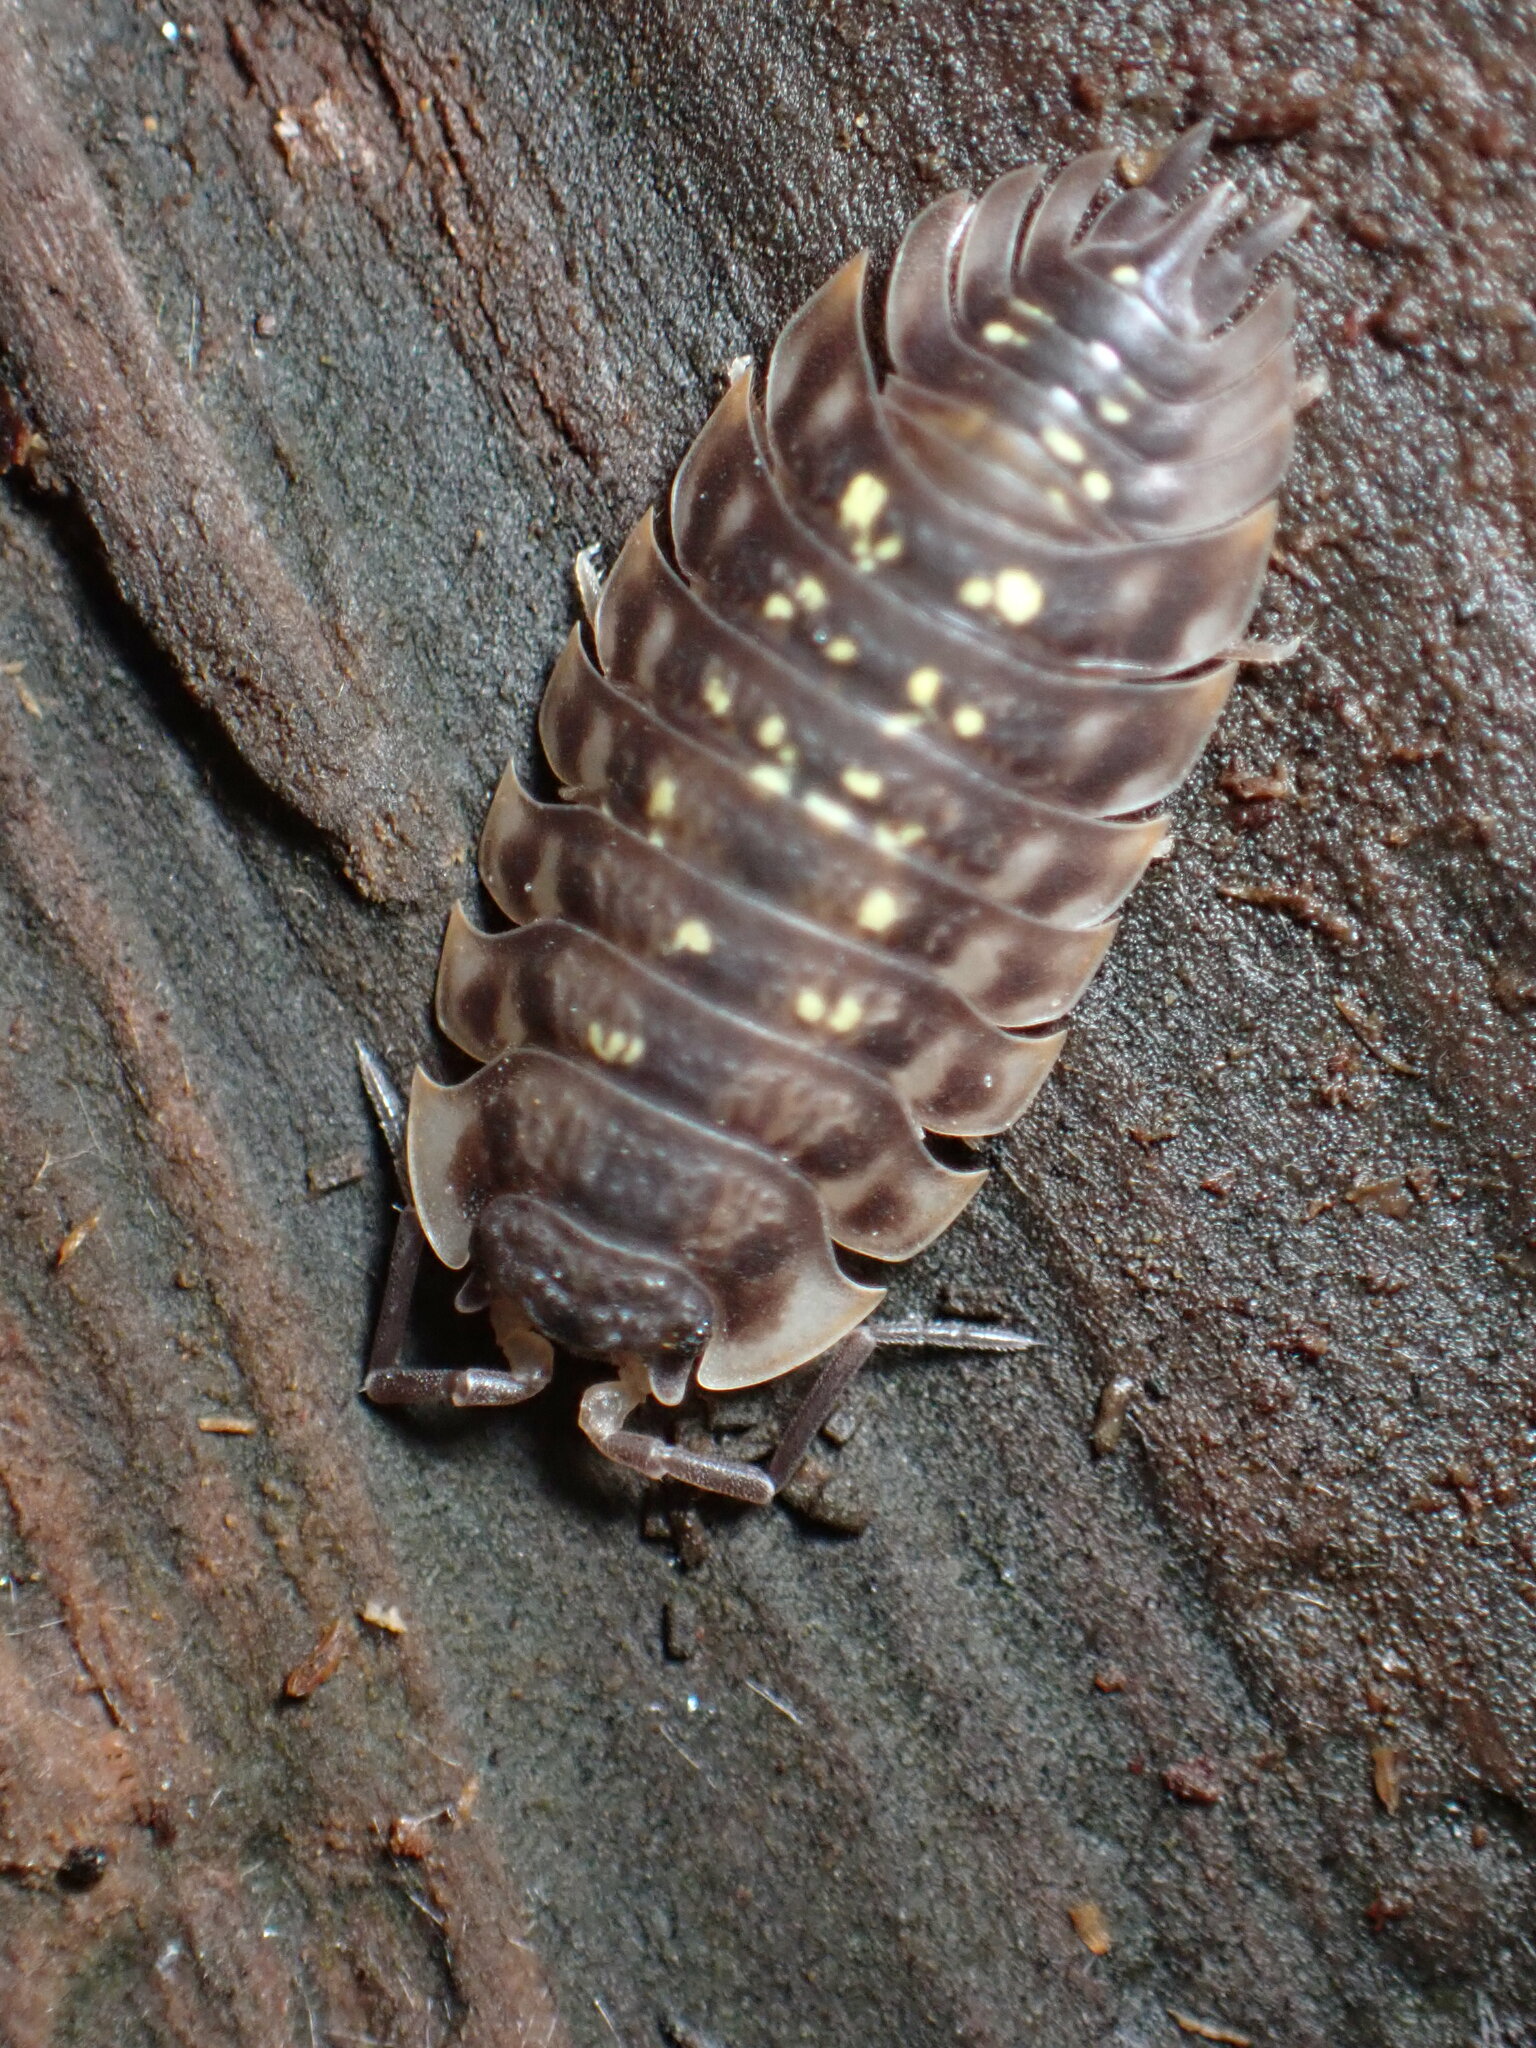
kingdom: Animalia
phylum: Arthropoda
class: Malacostraca
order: Isopoda
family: Oniscidae
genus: Oniscus
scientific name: Oniscus asellus
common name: Common shiny woodlouse
